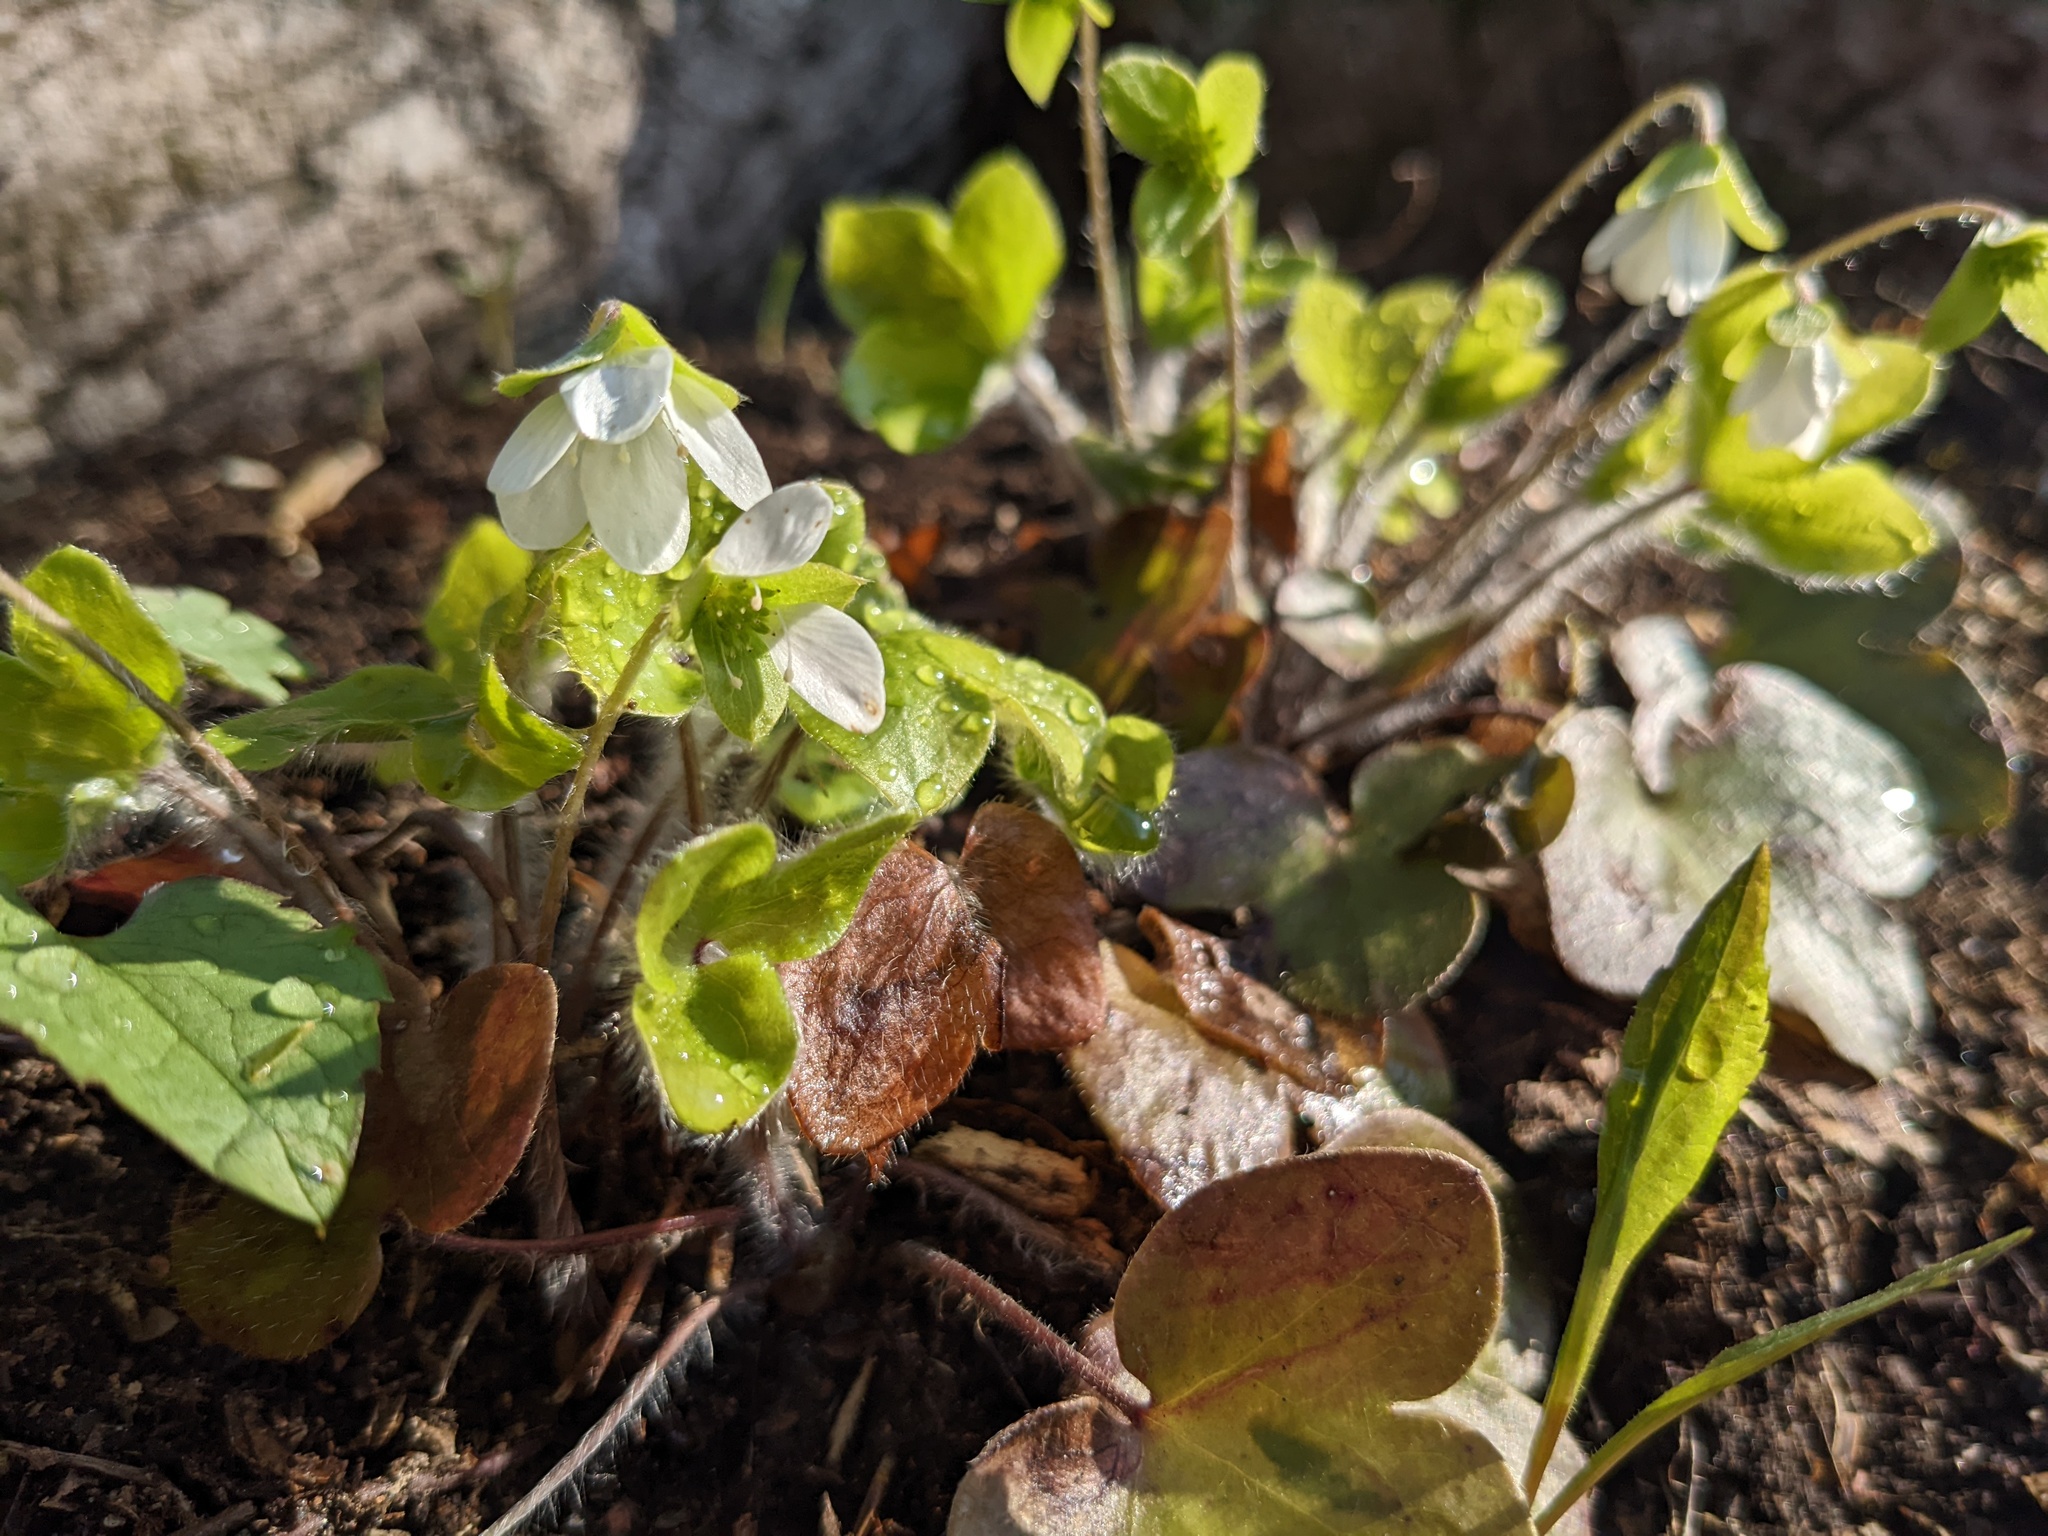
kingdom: Plantae
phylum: Tracheophyta
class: Magnoliopsida
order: Ranunculales
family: Ranunculaceae
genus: Hepatica
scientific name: Hepatica americana
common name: American hepatica
